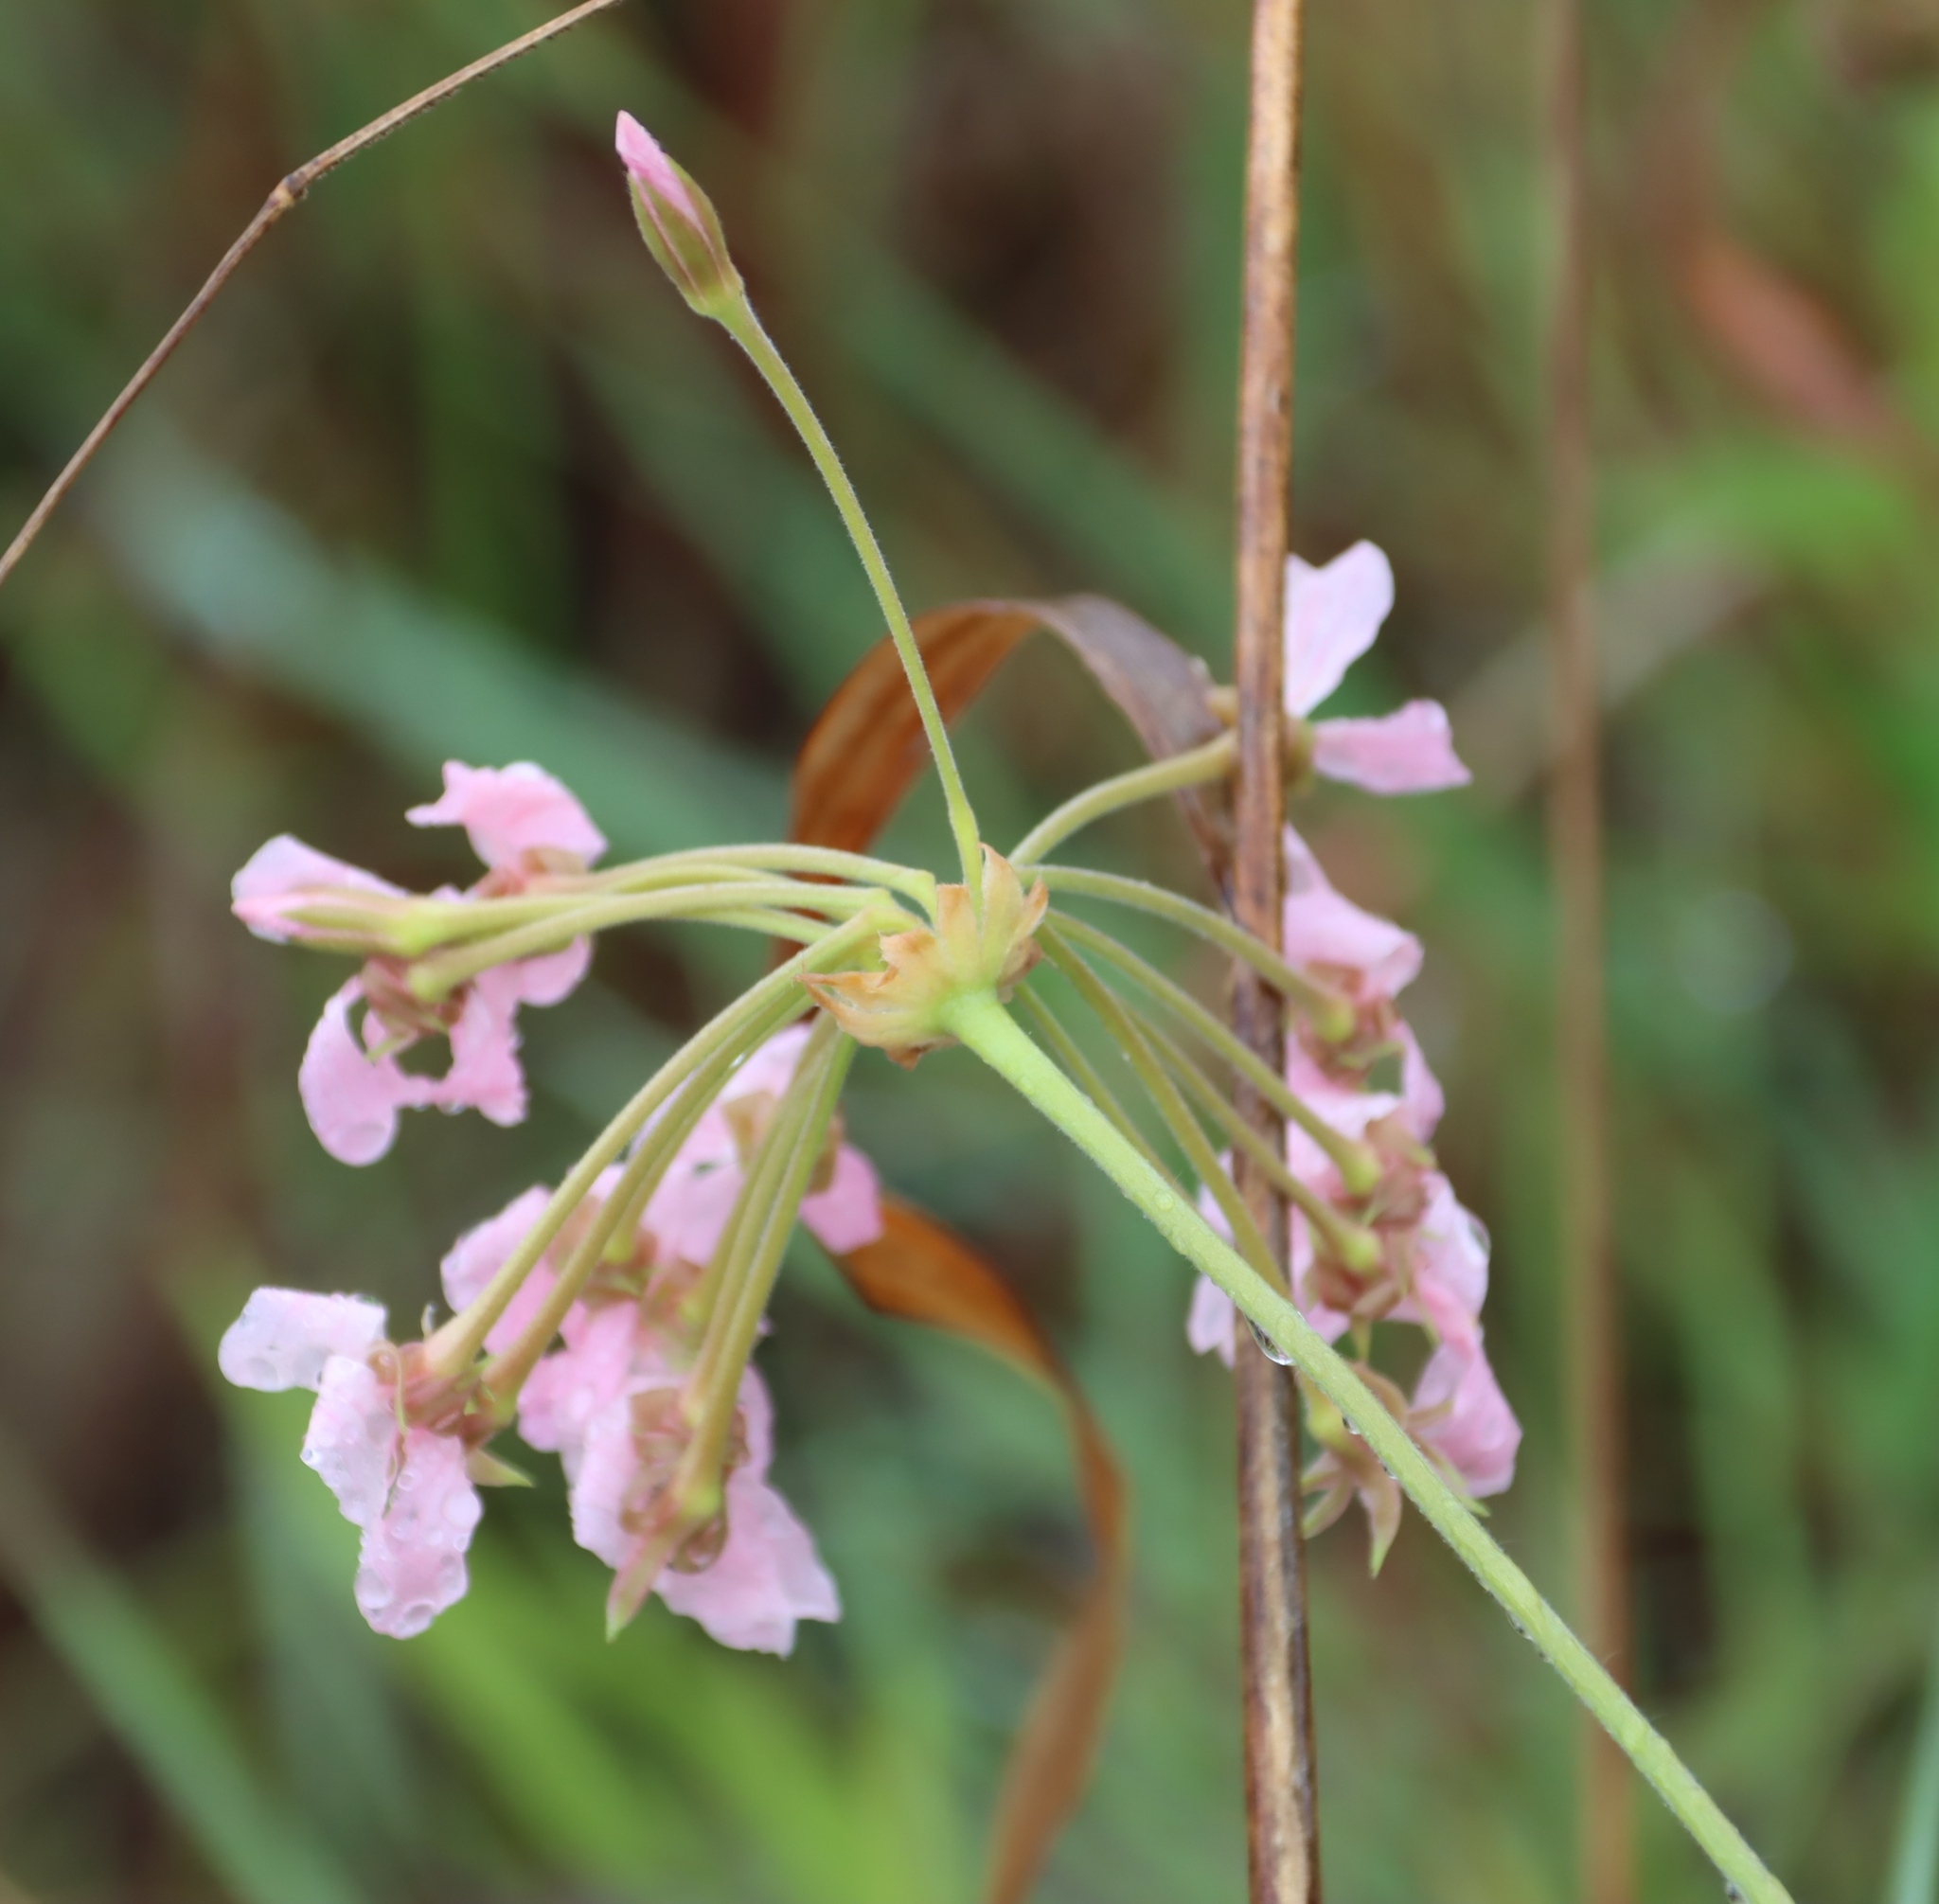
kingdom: Plantae
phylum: Tracheophyta
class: Magnoliopsida
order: Geraniales
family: Geraniaceae
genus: Pelargonium
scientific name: Pelargonium luridum
